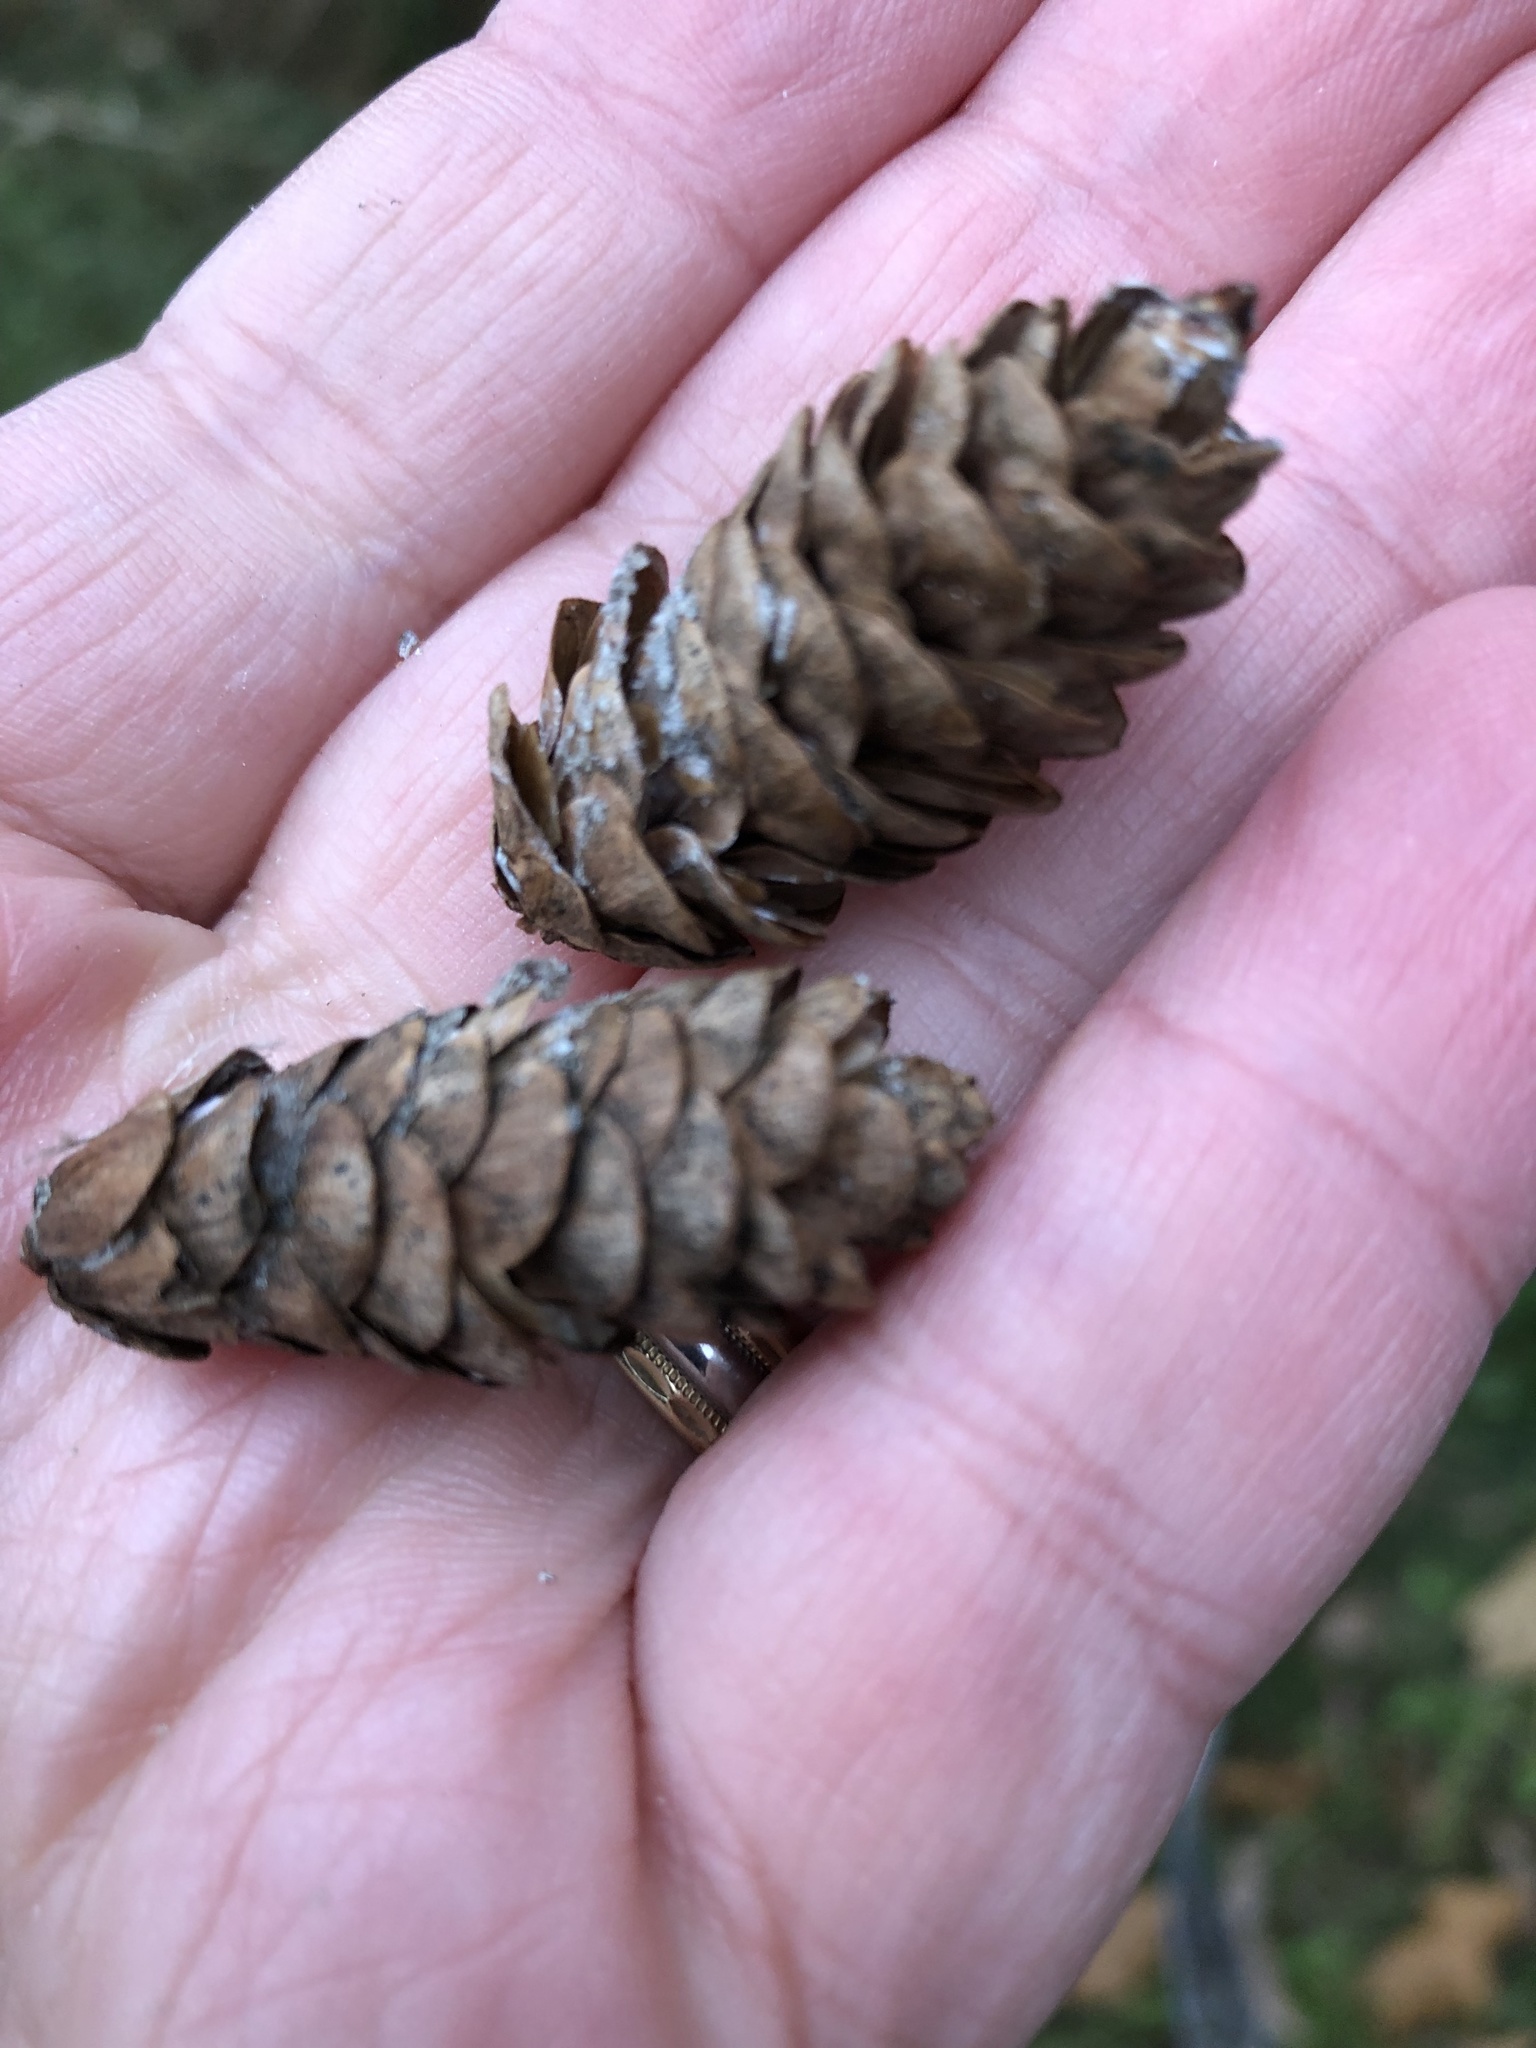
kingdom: Plantae
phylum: Tracheophyta
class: Pinopsida
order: Pinales
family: Pinaceae
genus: Picea
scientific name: Picea glauca
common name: White spruce
